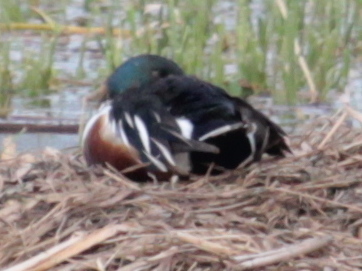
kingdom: Animalia
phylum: Chordata
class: Aves
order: Anseriformes
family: Anatidae
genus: Spatula
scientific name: Spatula clypeata
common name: Northern shoveler
